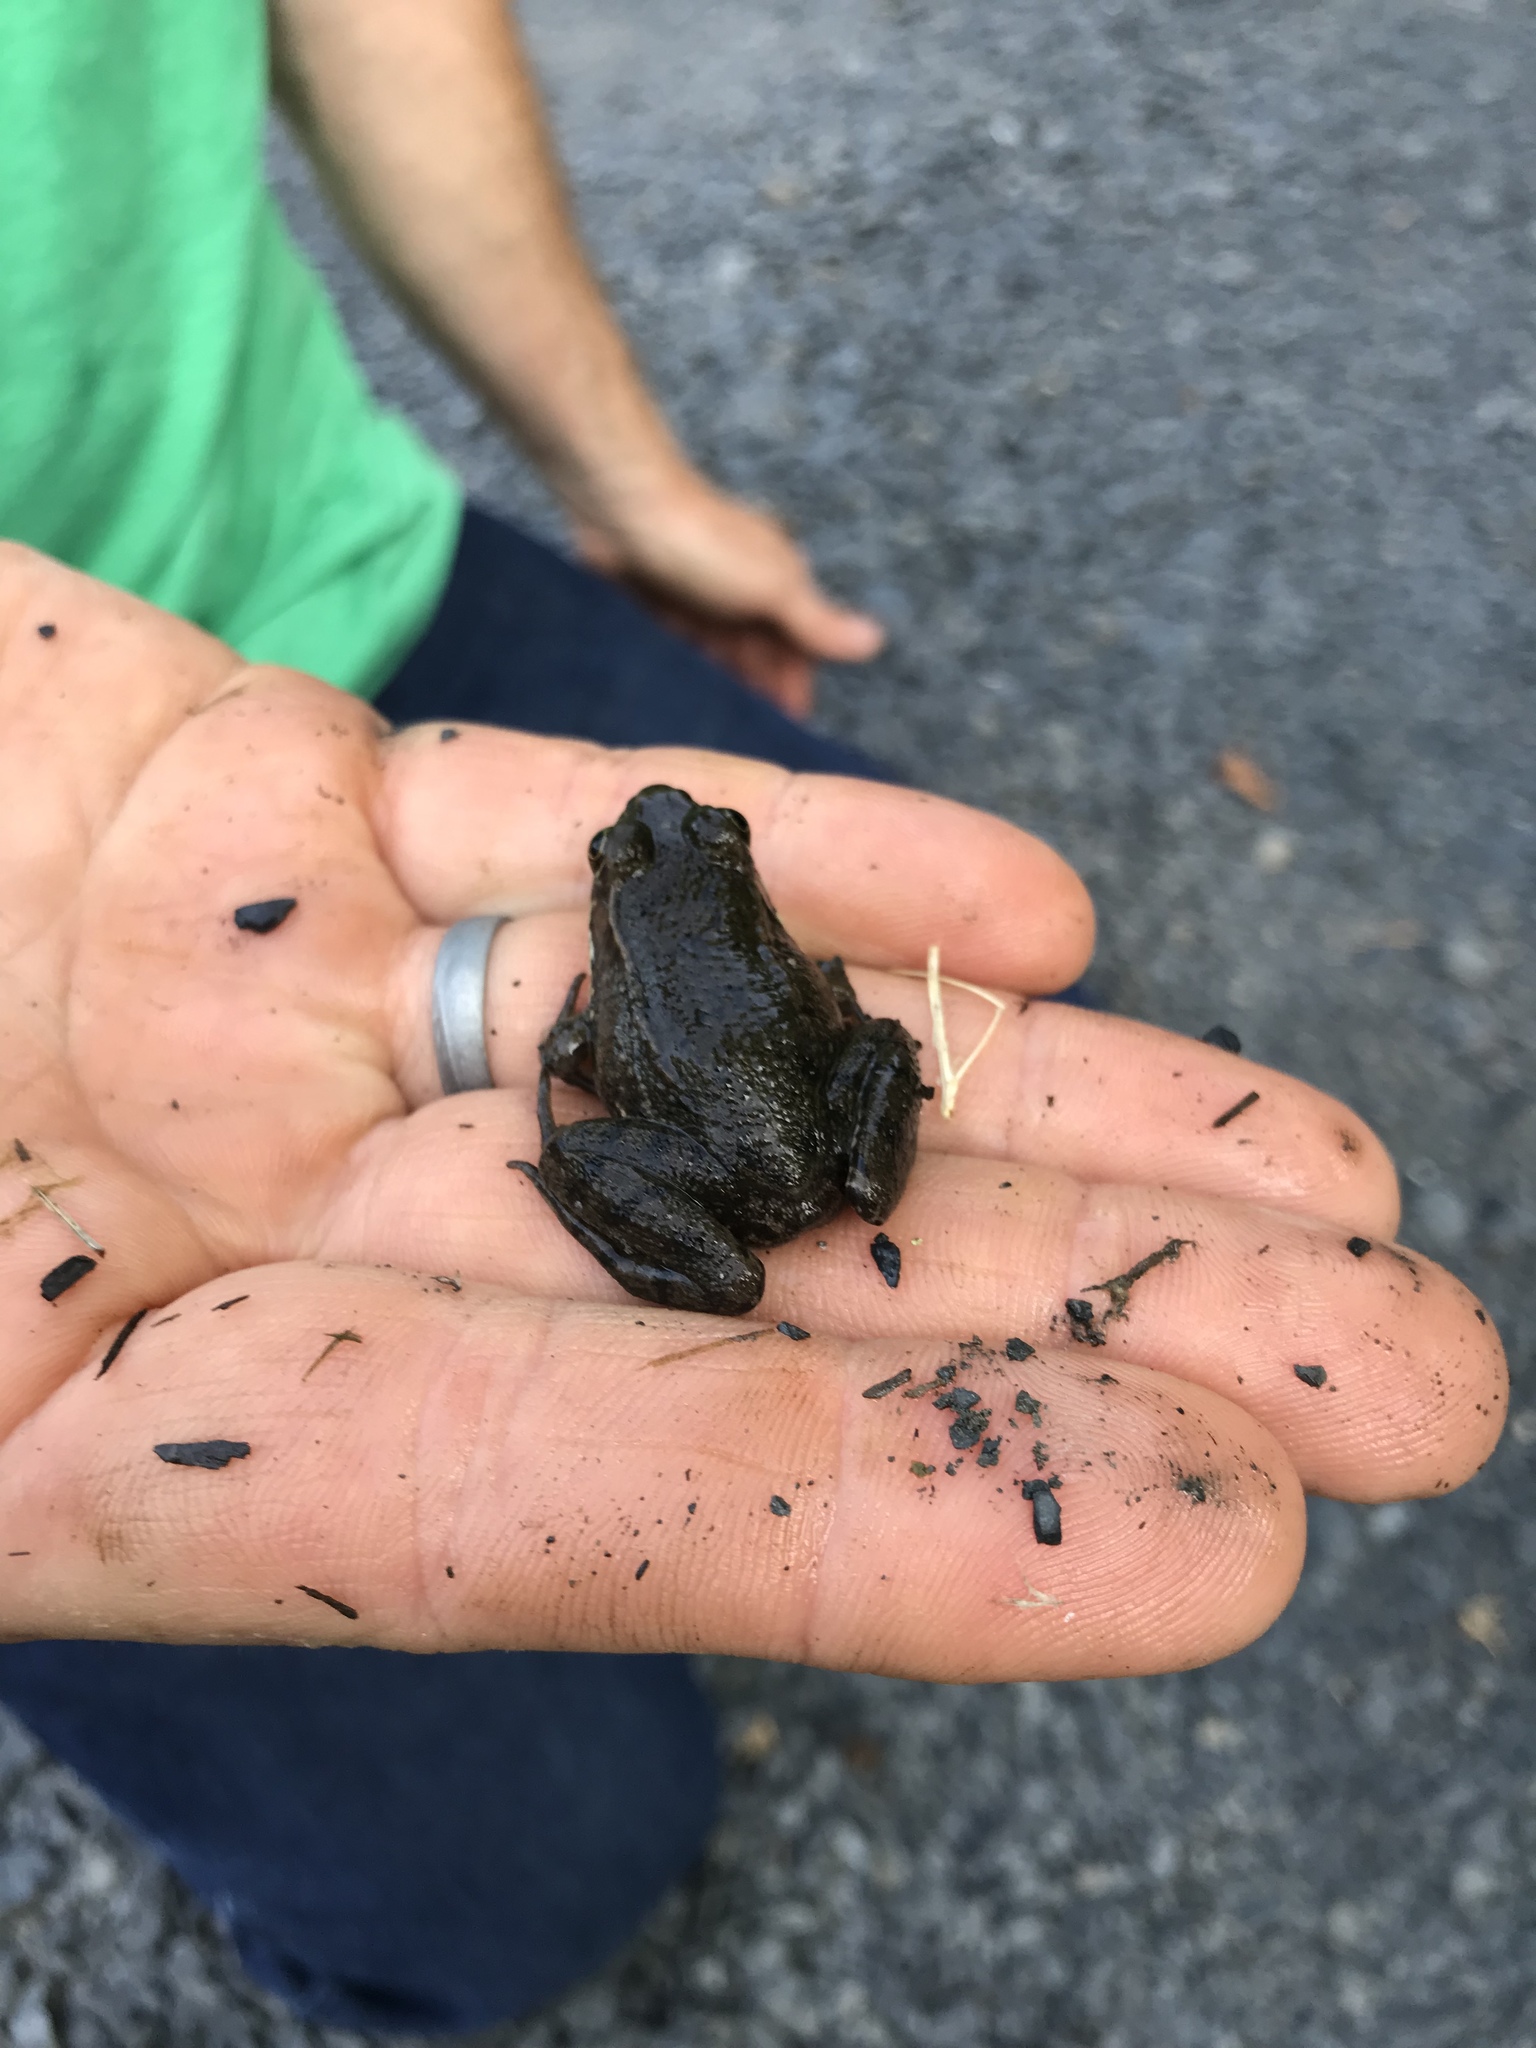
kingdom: Animalia
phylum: Chordata
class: Amphibia
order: Anura
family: Ranidae
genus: Lithobates
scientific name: Lithobates clamitans
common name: Green frog
